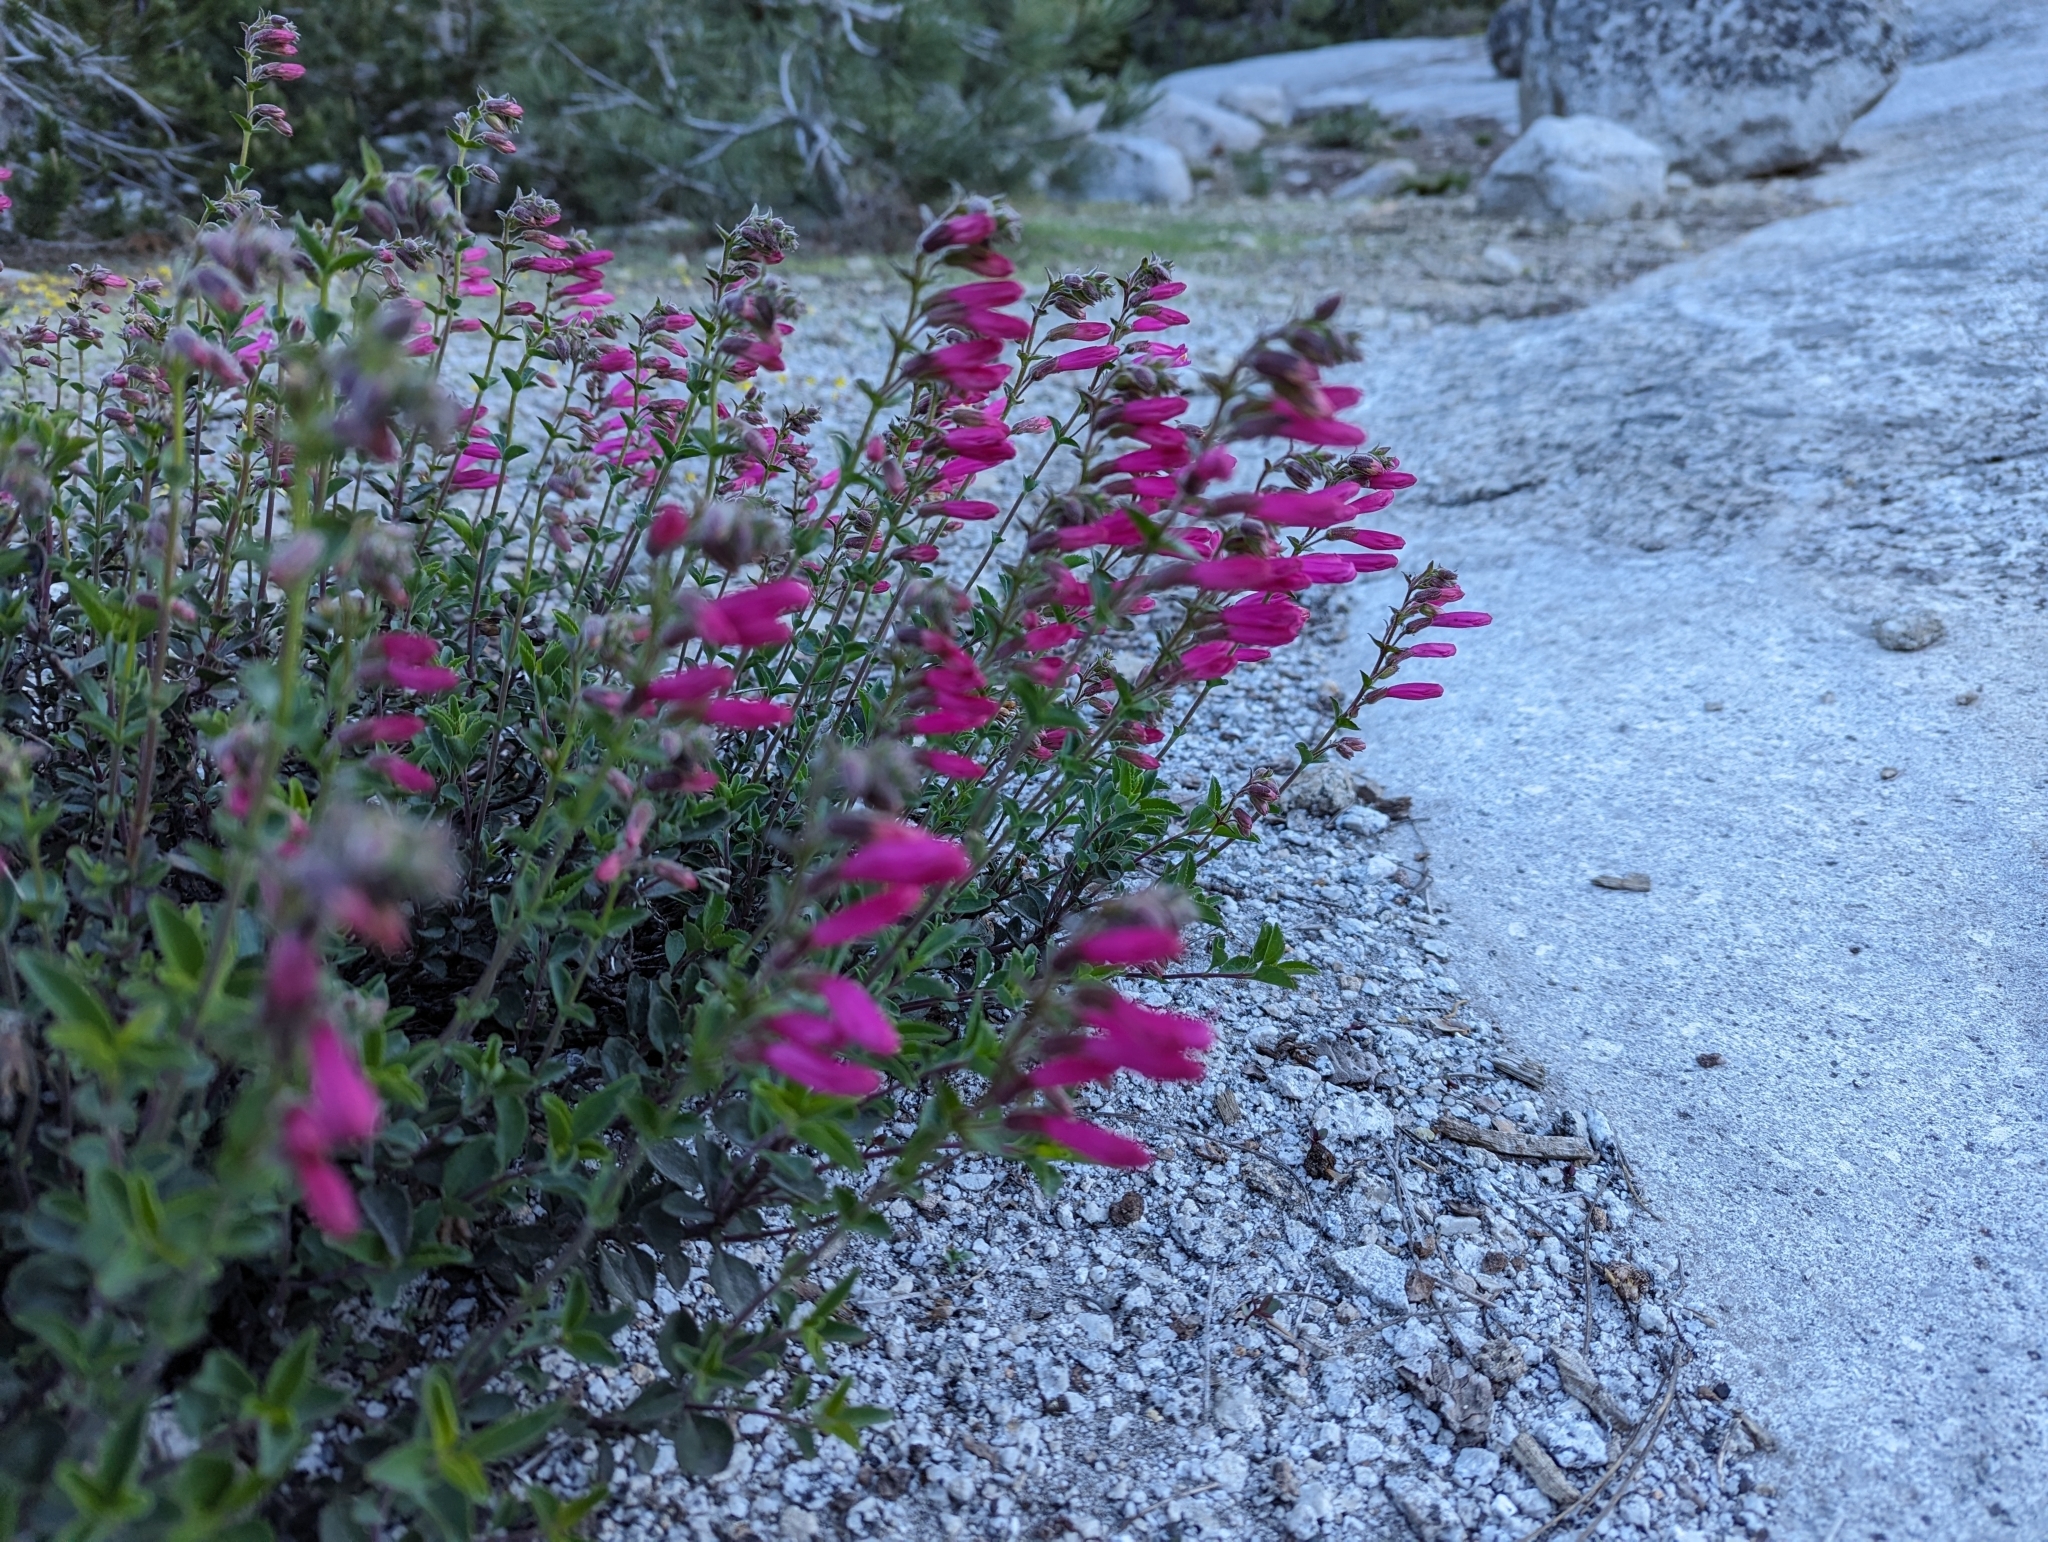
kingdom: Plantae
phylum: Tracheophyta
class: Magnoliopsida
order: Lamiales
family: Plantaginaceae
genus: Penstemon
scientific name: Penstemon newberryi
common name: Mountain-pride
